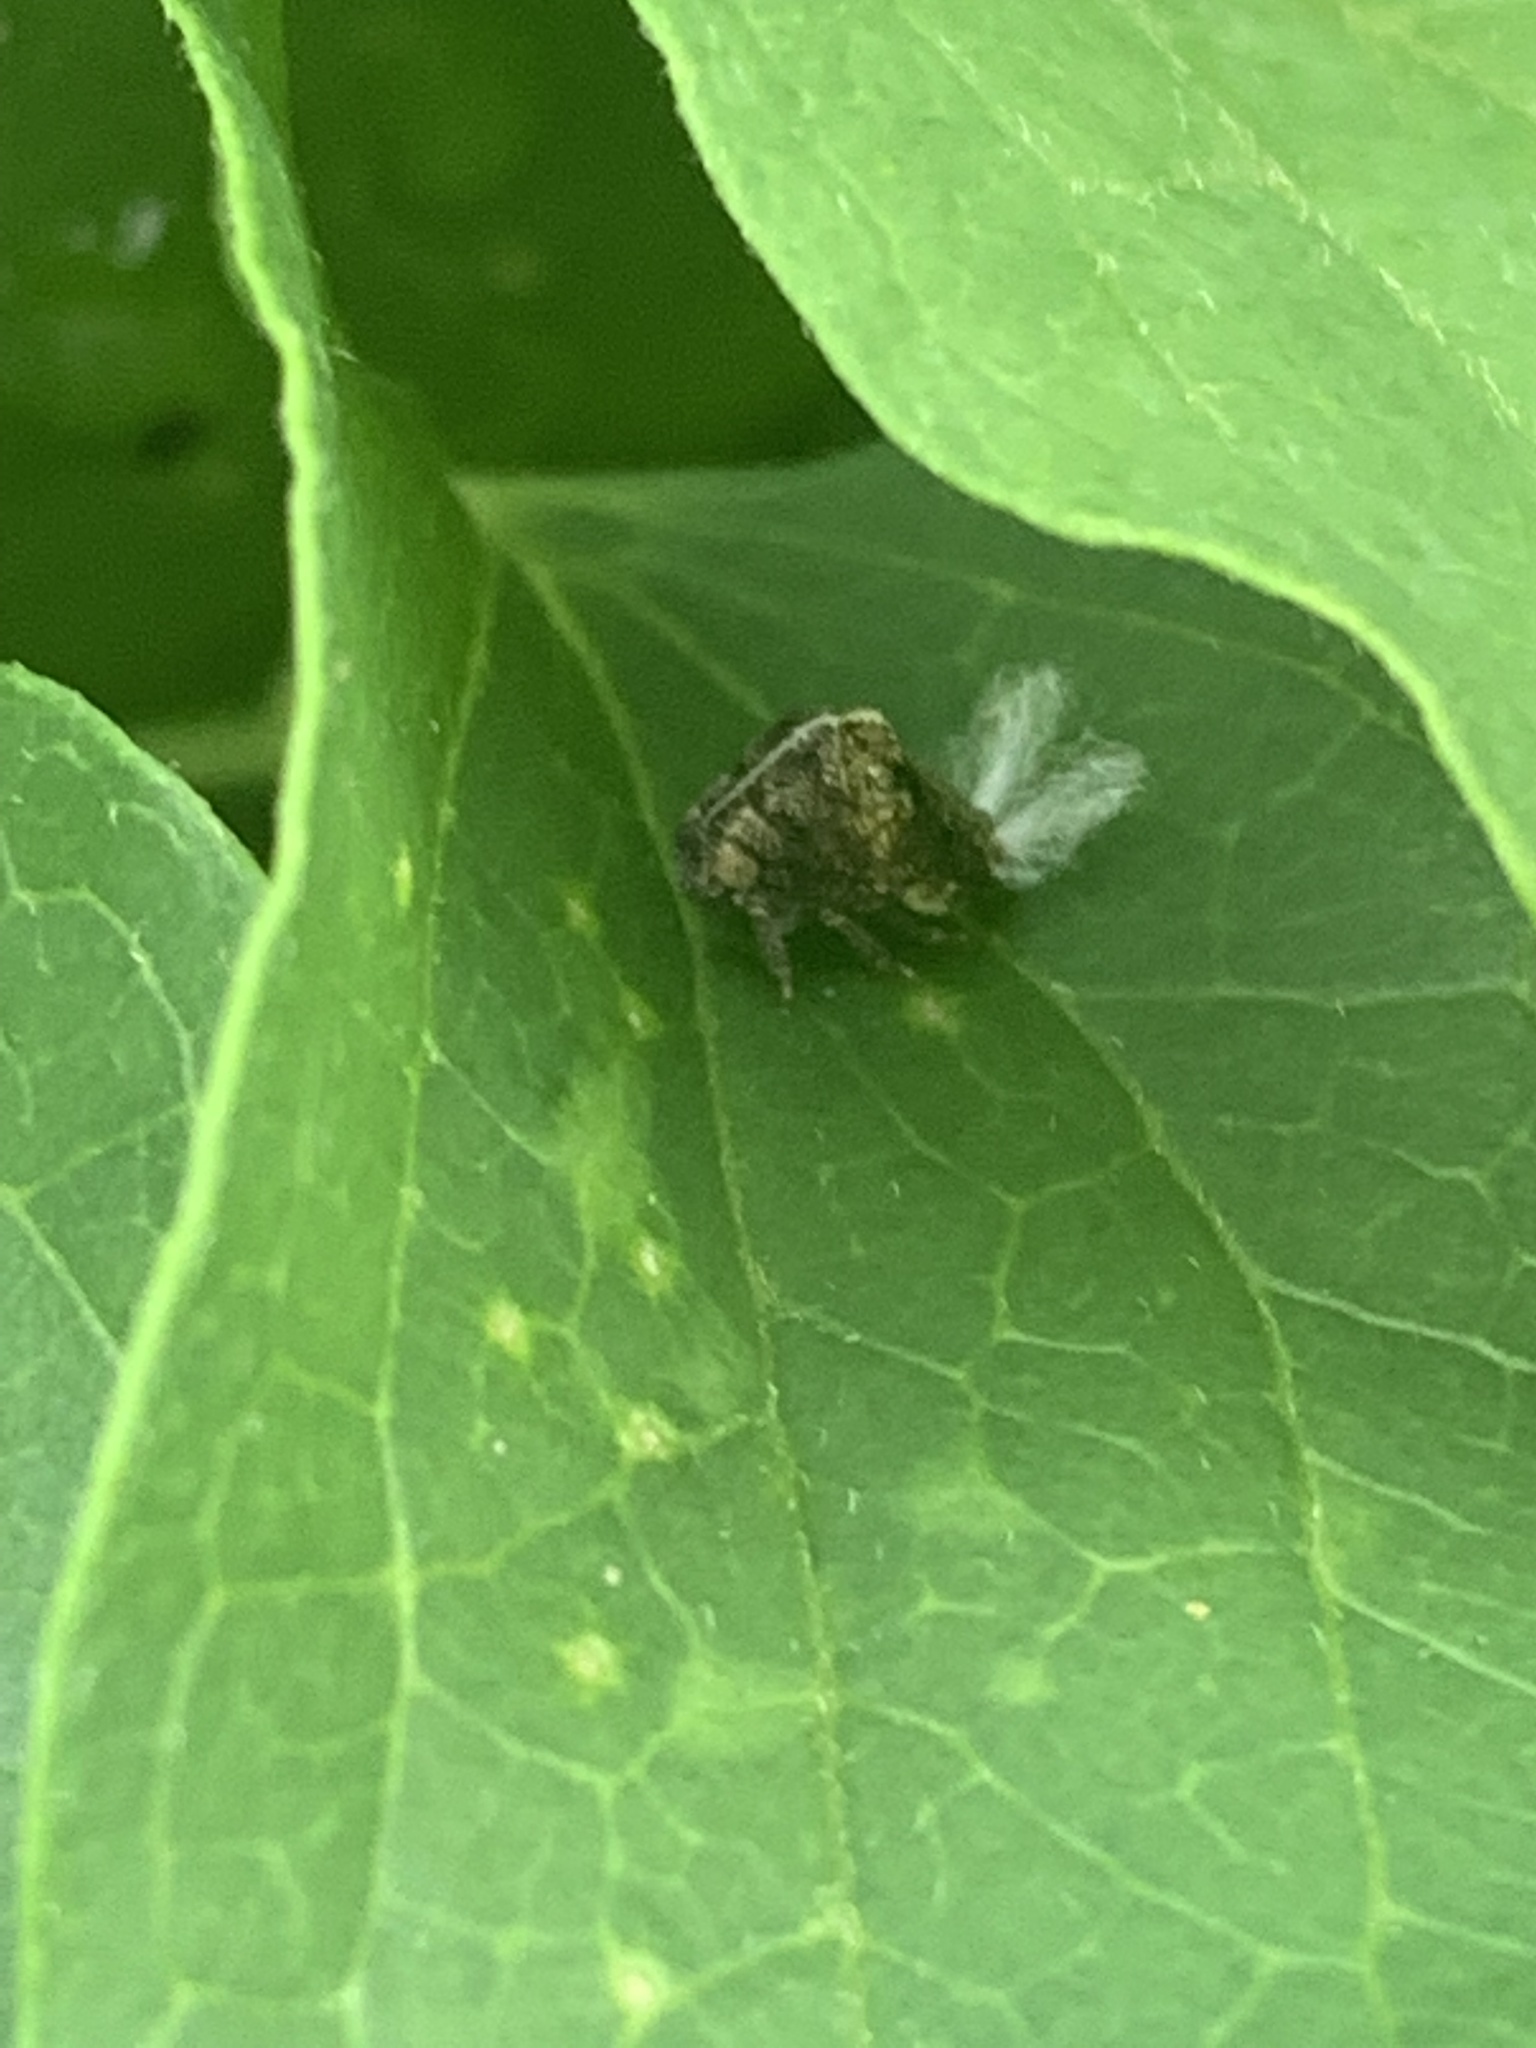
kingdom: Animalia
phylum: Arthropoda
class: Insecta
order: Hemiptera
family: Acanaloniidae
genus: Acanalonia
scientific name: Acanalonia
